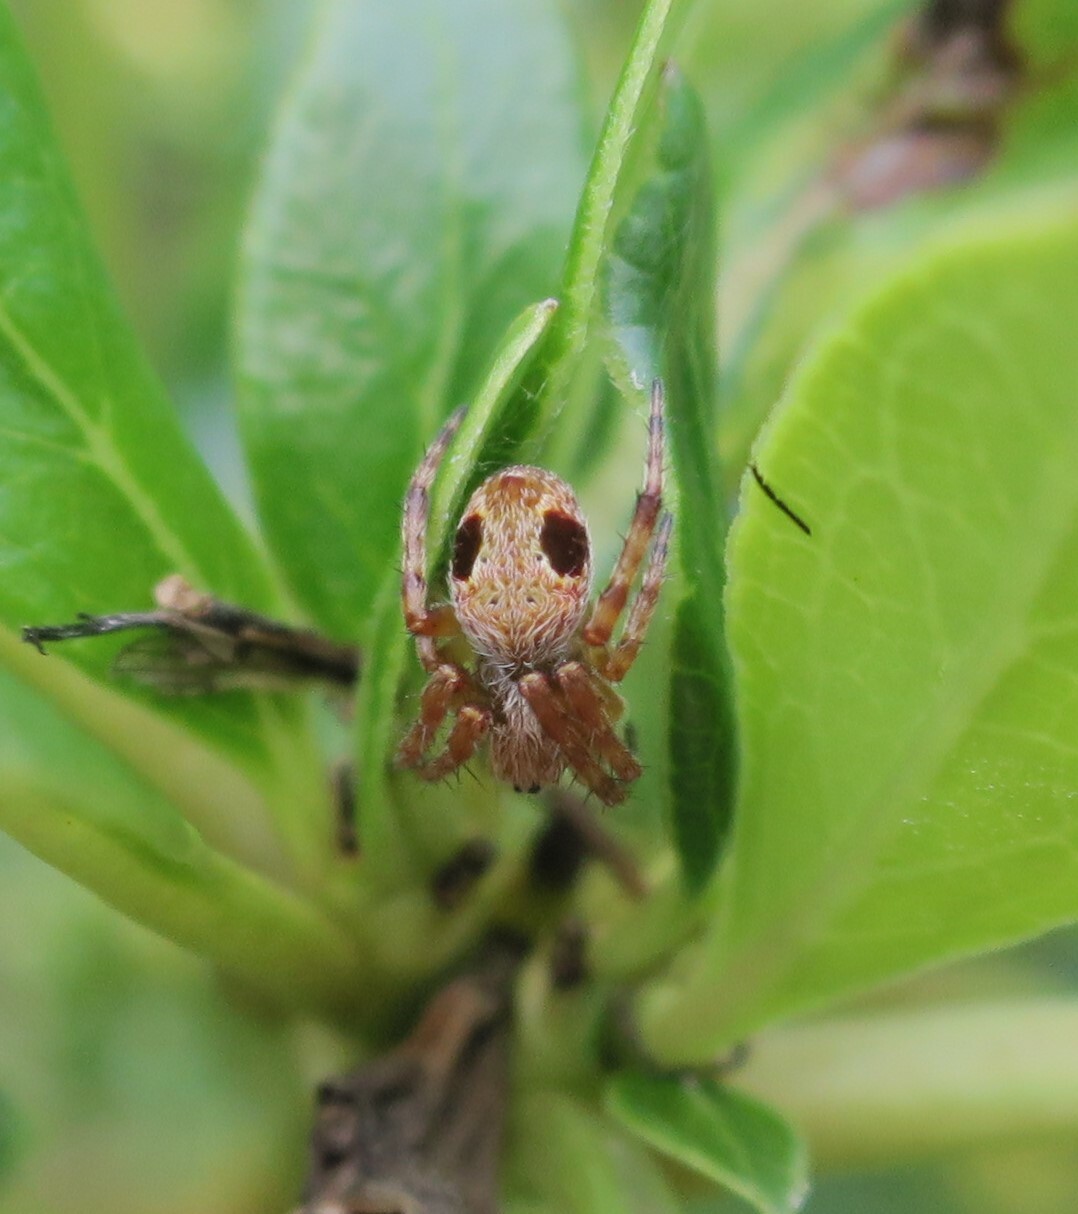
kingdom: Animalia
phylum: Arthropoda
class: Arachnida
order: Araneae
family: Araneidae
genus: Salsa
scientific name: Salsa fuliginata
